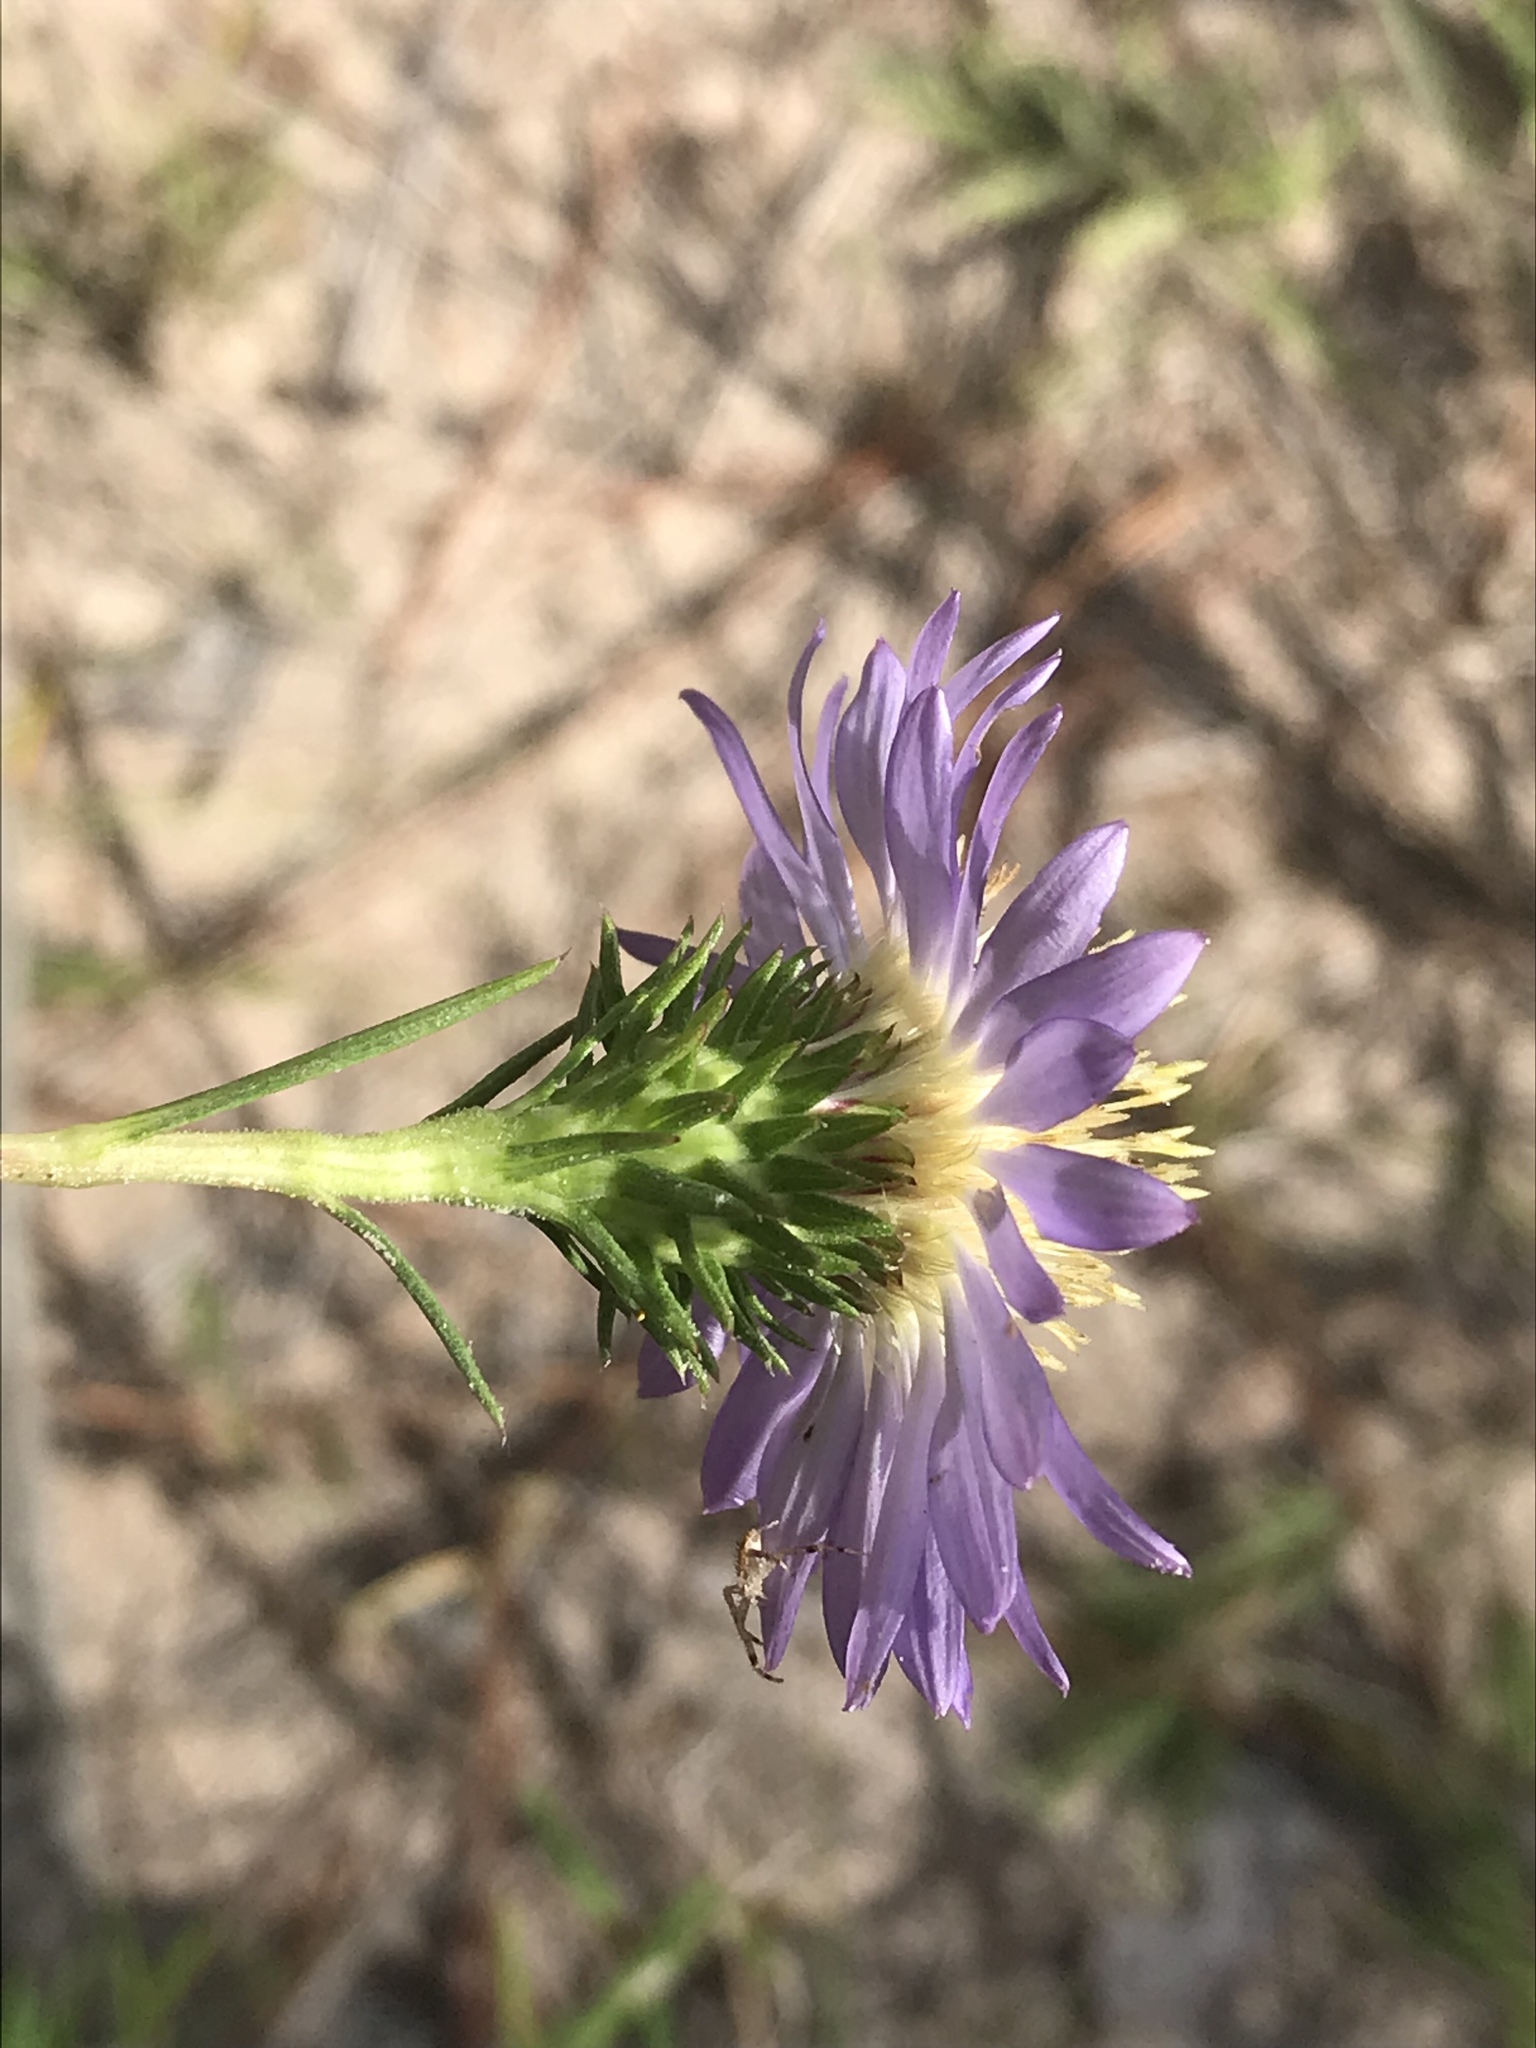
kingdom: Plantae
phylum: Tracheophyta
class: Magnoliopsida
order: Asterales
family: Asteraceae
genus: Eurybia
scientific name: Eurybia hemispherica
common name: Showy aster
